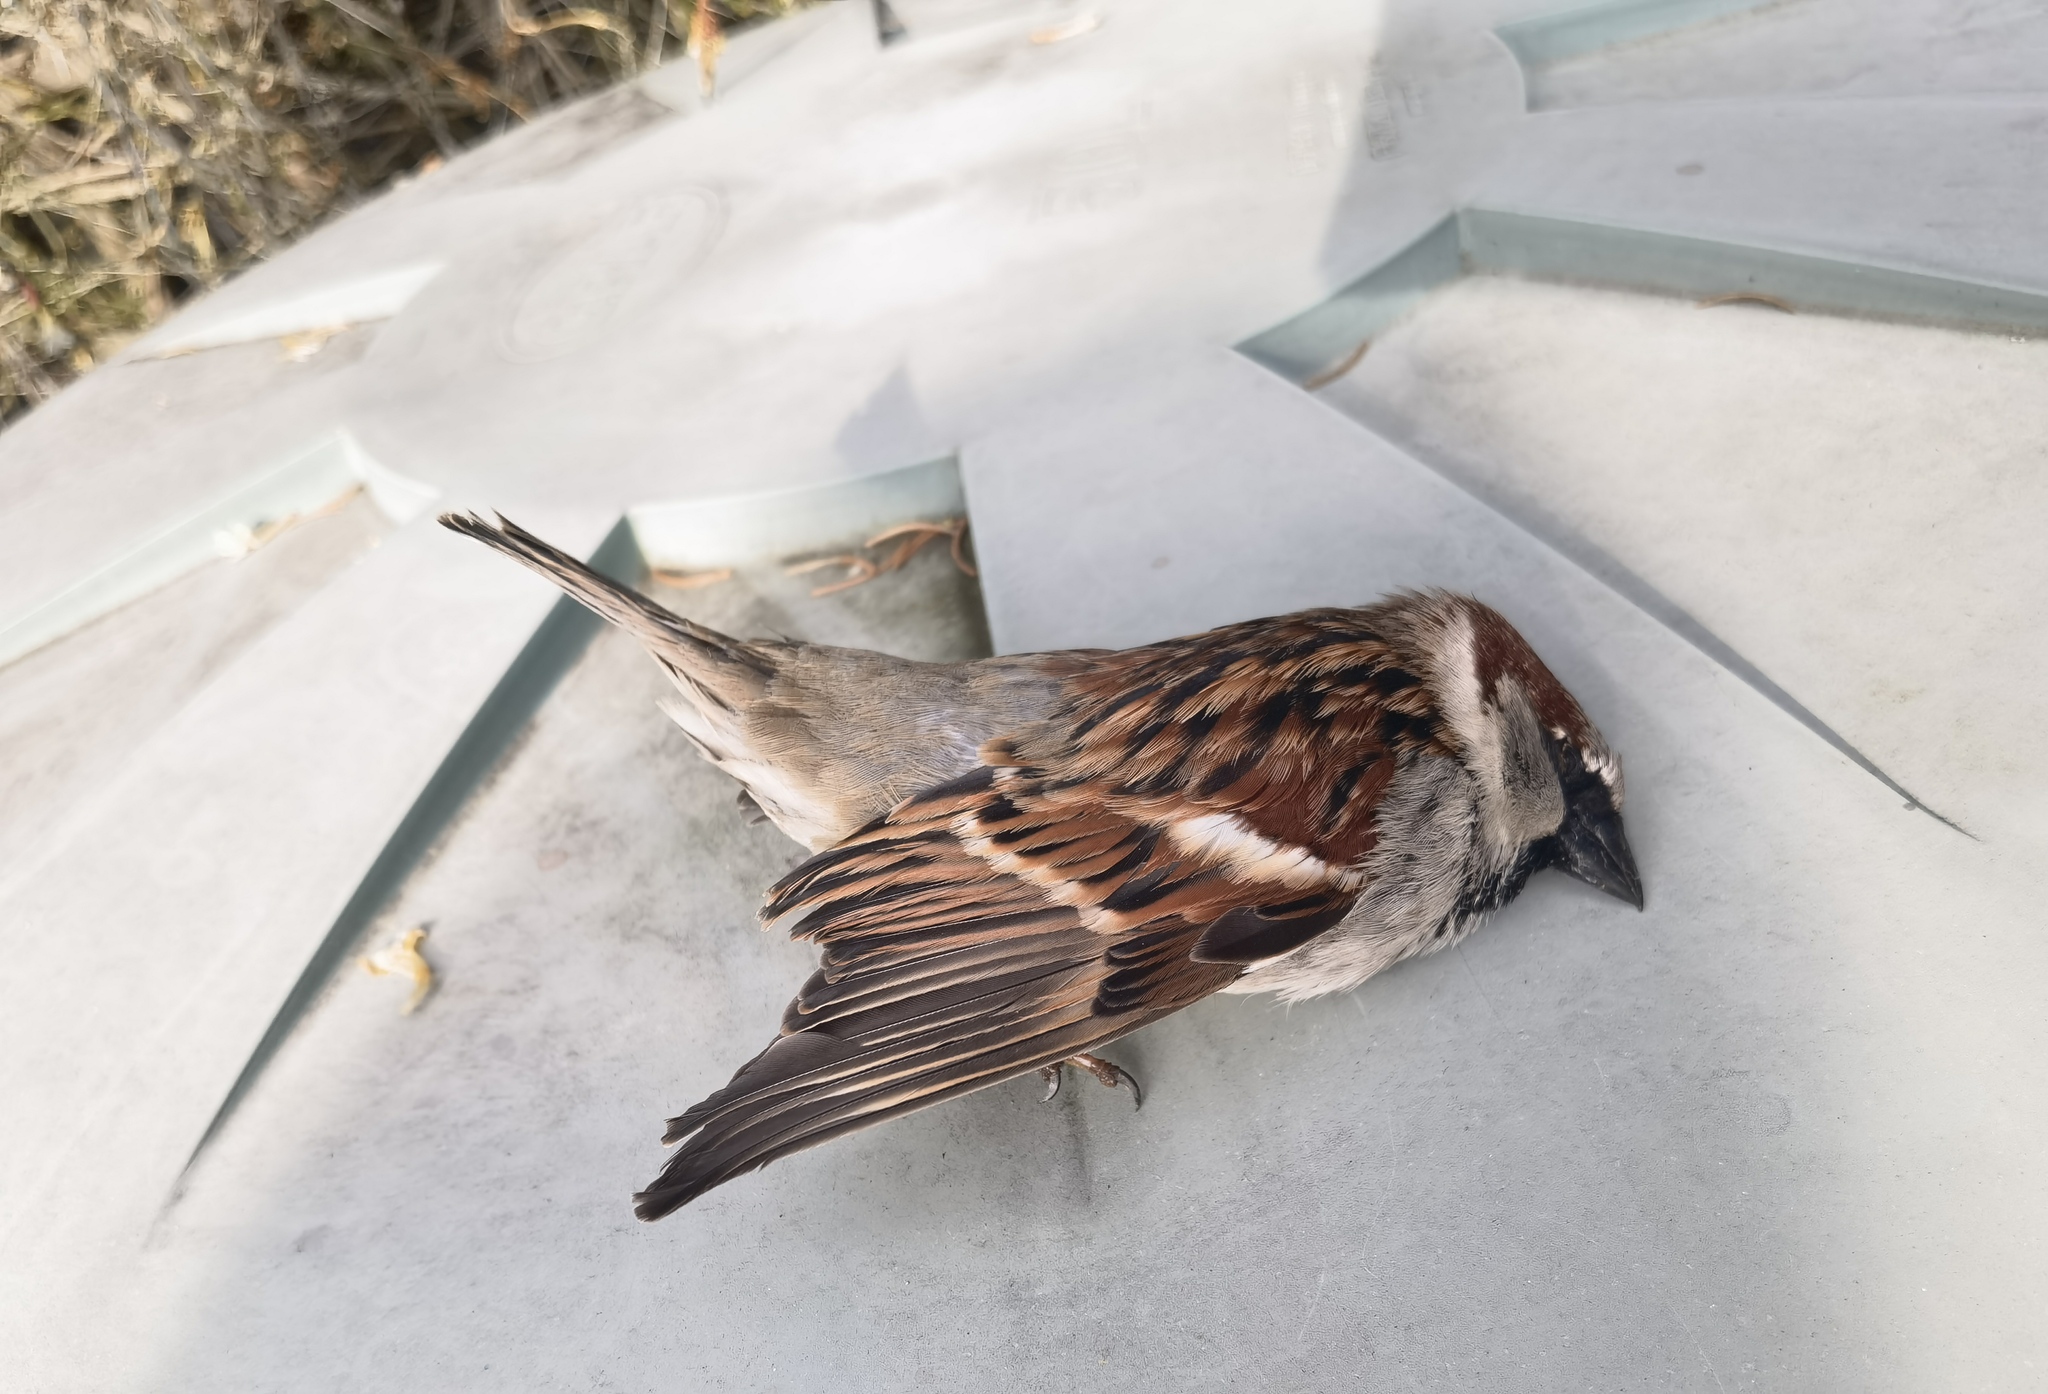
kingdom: Animalia
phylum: Chordata
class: Aves
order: Passeriformes
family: Passeridae
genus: Passer
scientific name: Passer domesticus
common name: House sparrow
